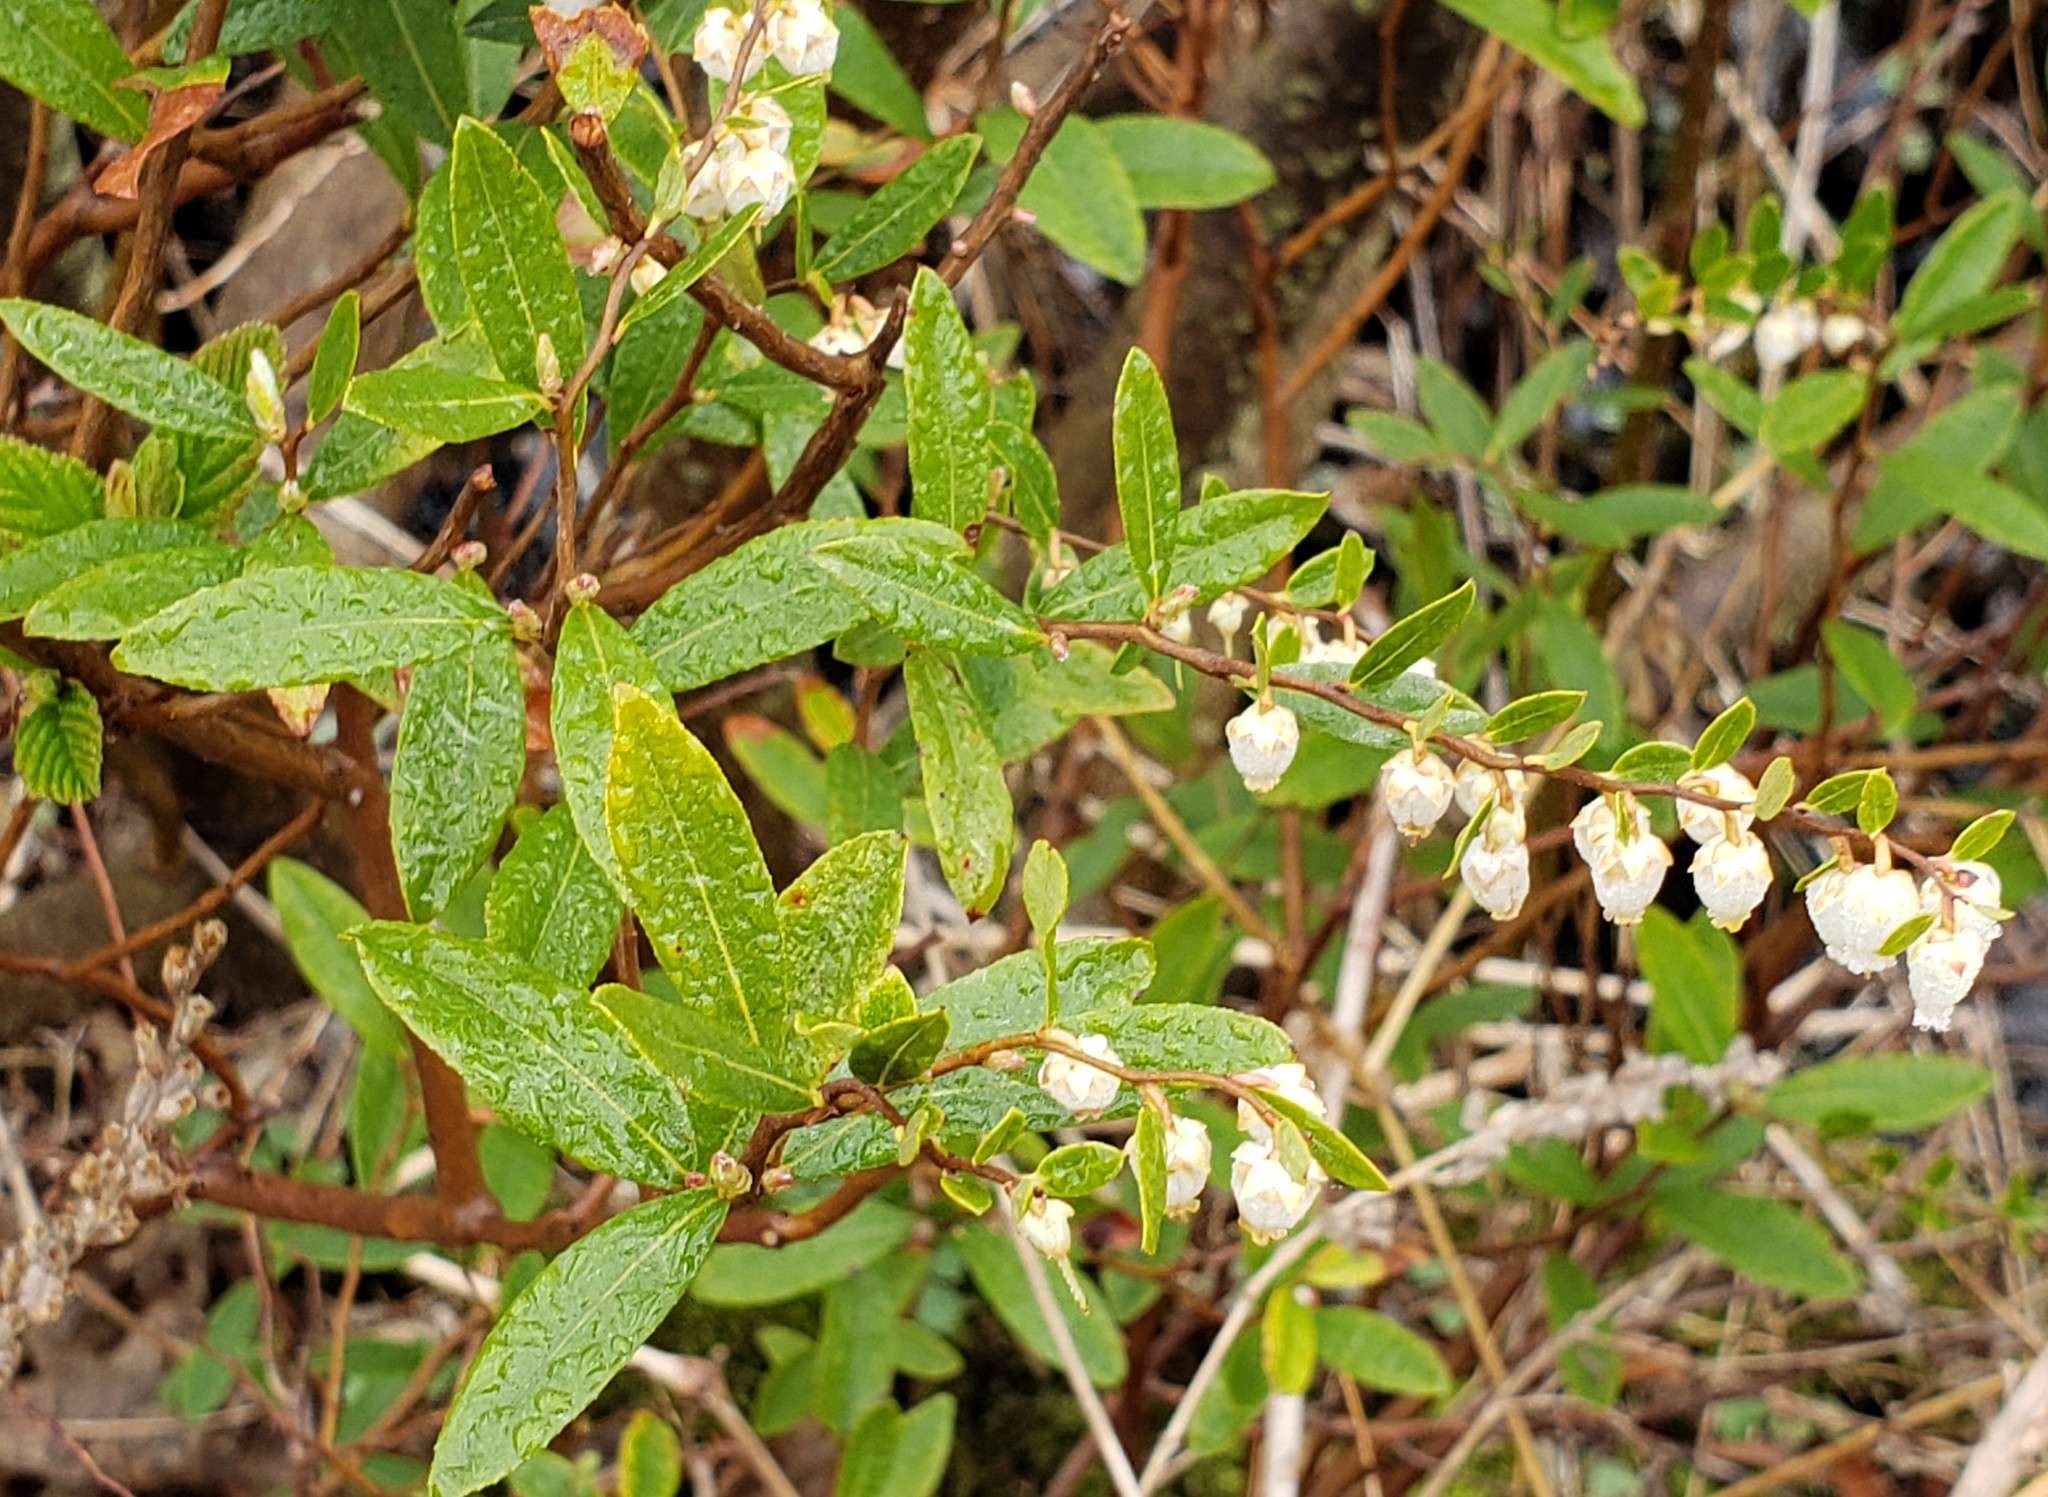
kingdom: Plantae
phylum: Tracheophyta
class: Magnoliopsida
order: Ericales
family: Ericaceae
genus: Chamaedaphne
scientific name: Chamaedaphne calyculata
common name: Leatherleaf
